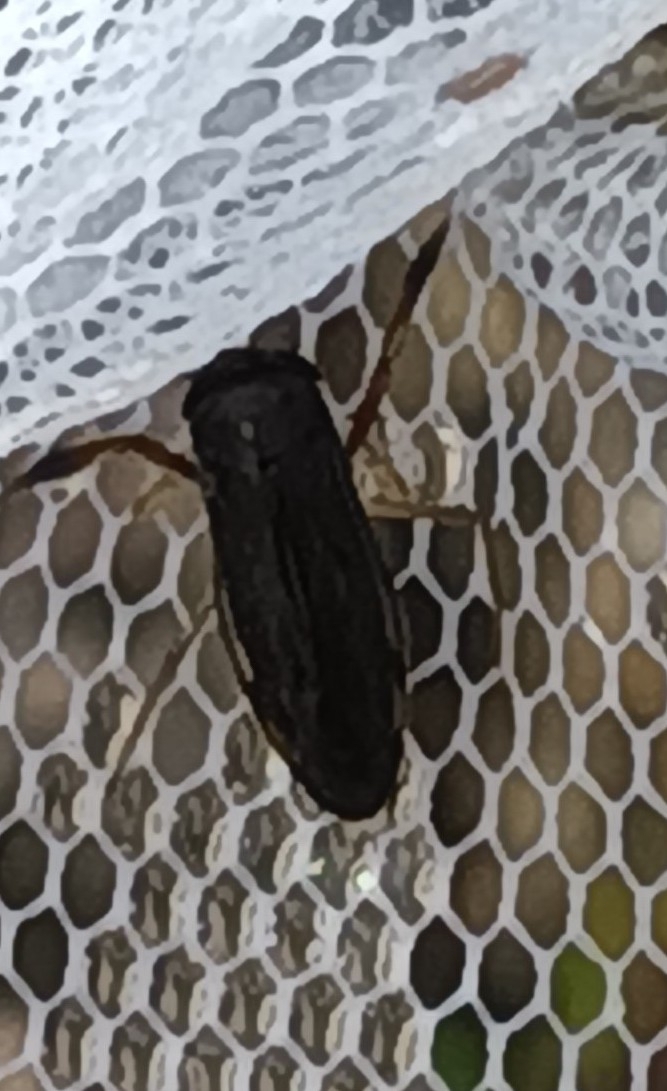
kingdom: Animalia
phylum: Arthropoda
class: Insecta
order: Hemiptera
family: Corixidae
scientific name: Corixidae
